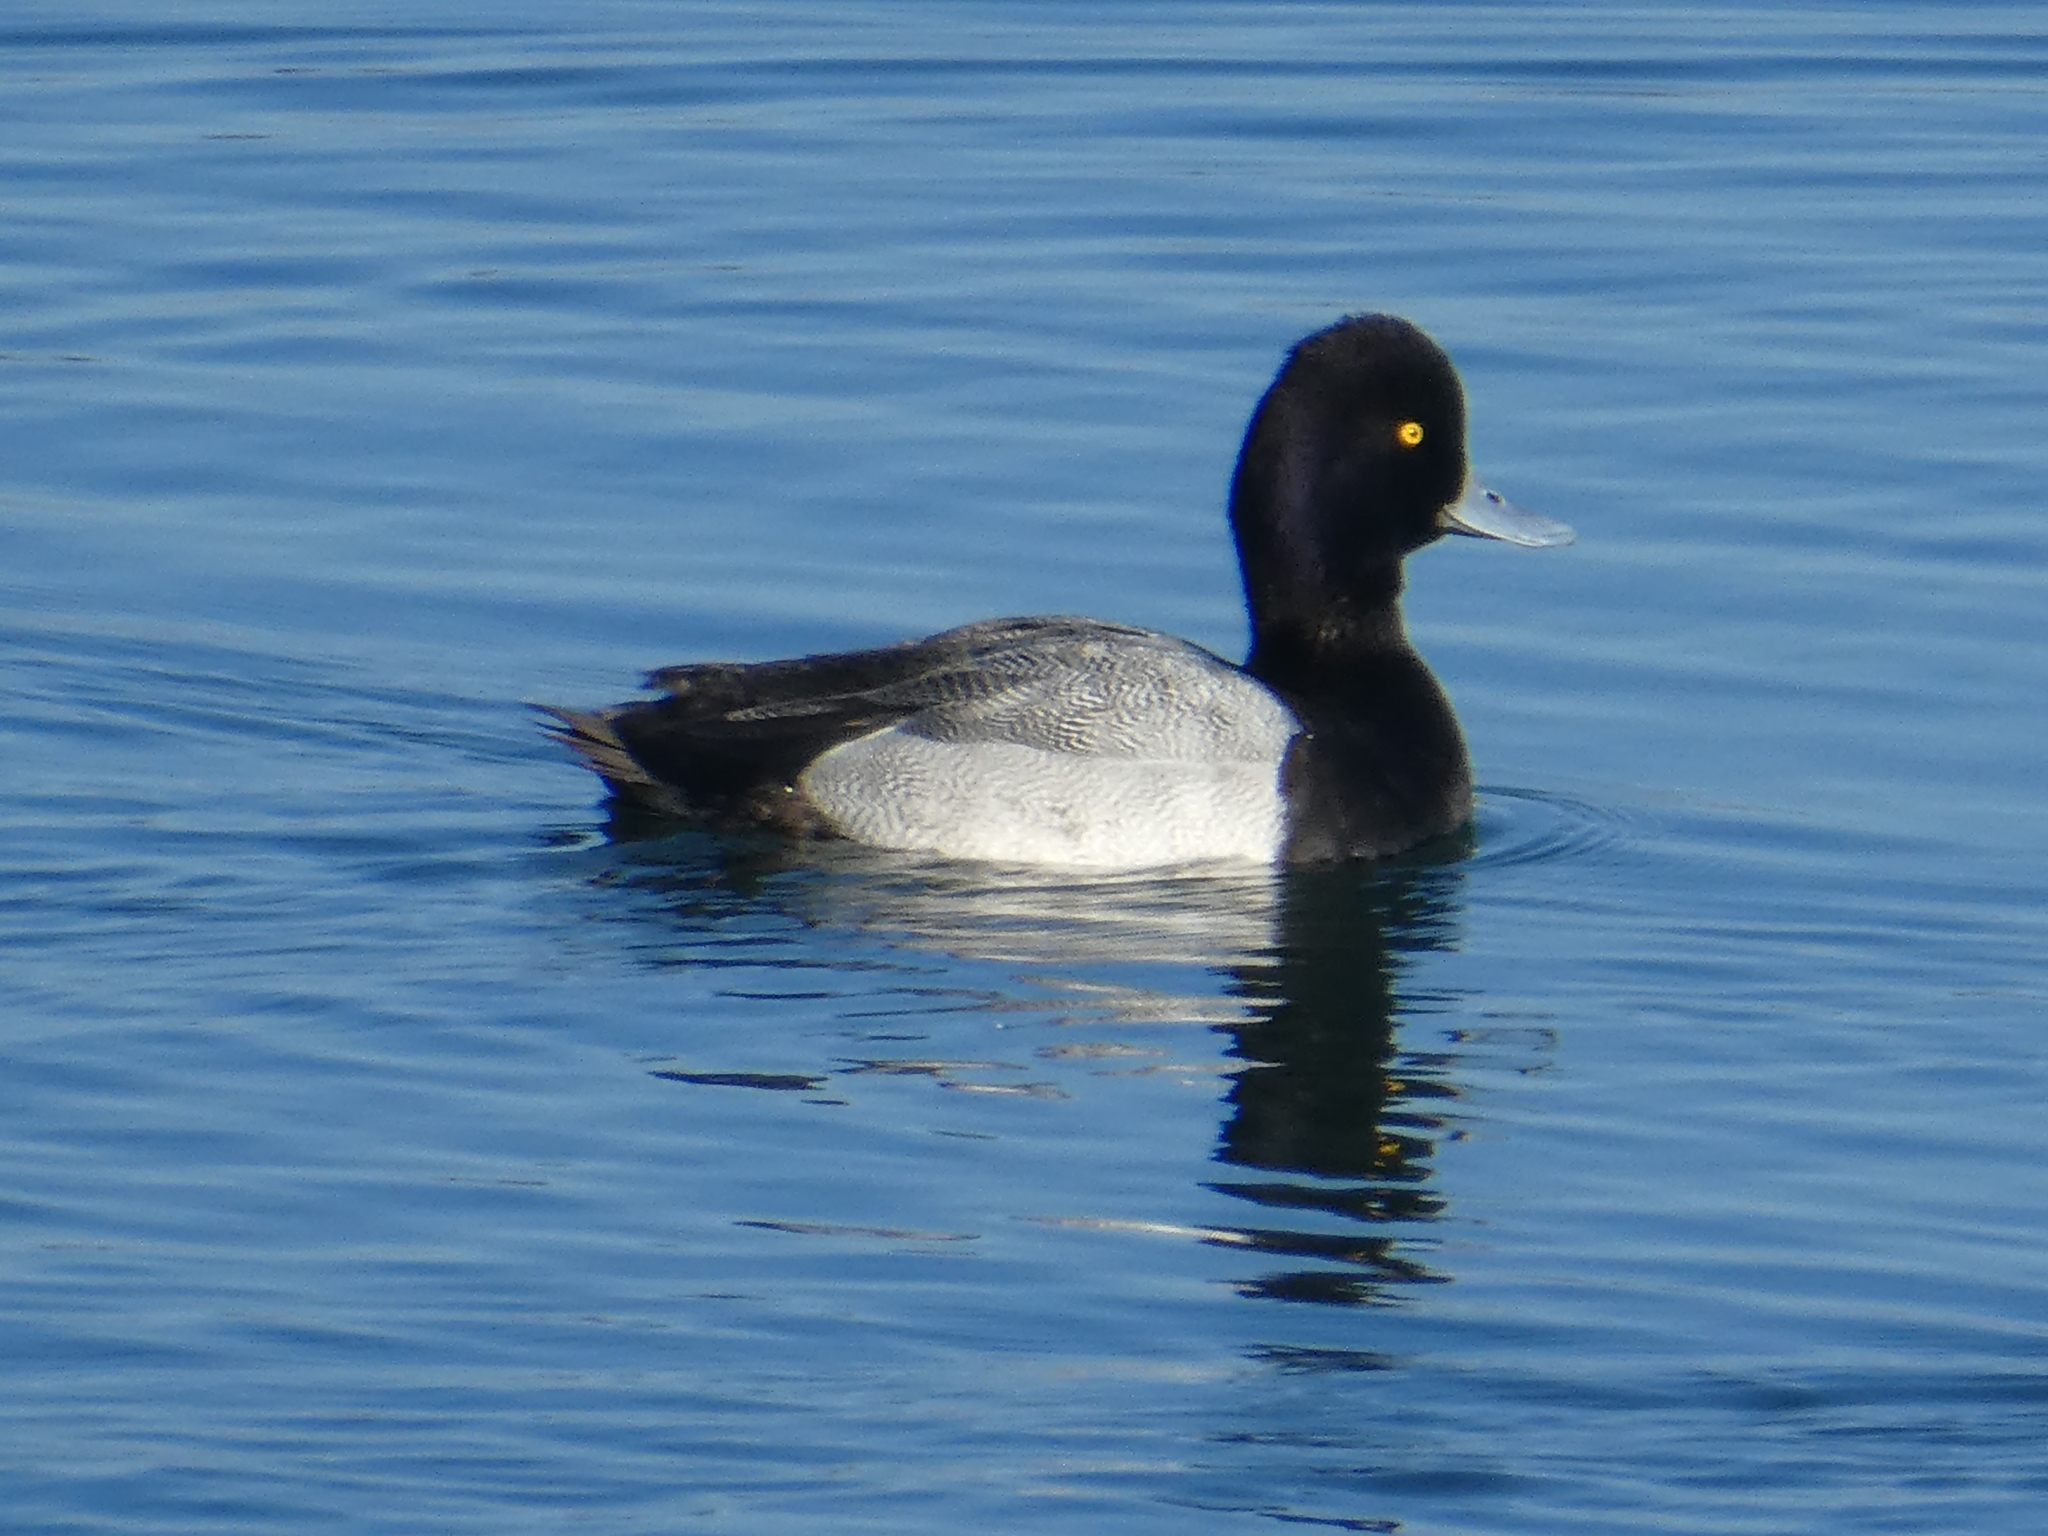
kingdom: Animalia
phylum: Chordata
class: Aves
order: Anseriformes
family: Anatidae
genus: Aythya
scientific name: Aythya affinis
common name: Lesser scaup
